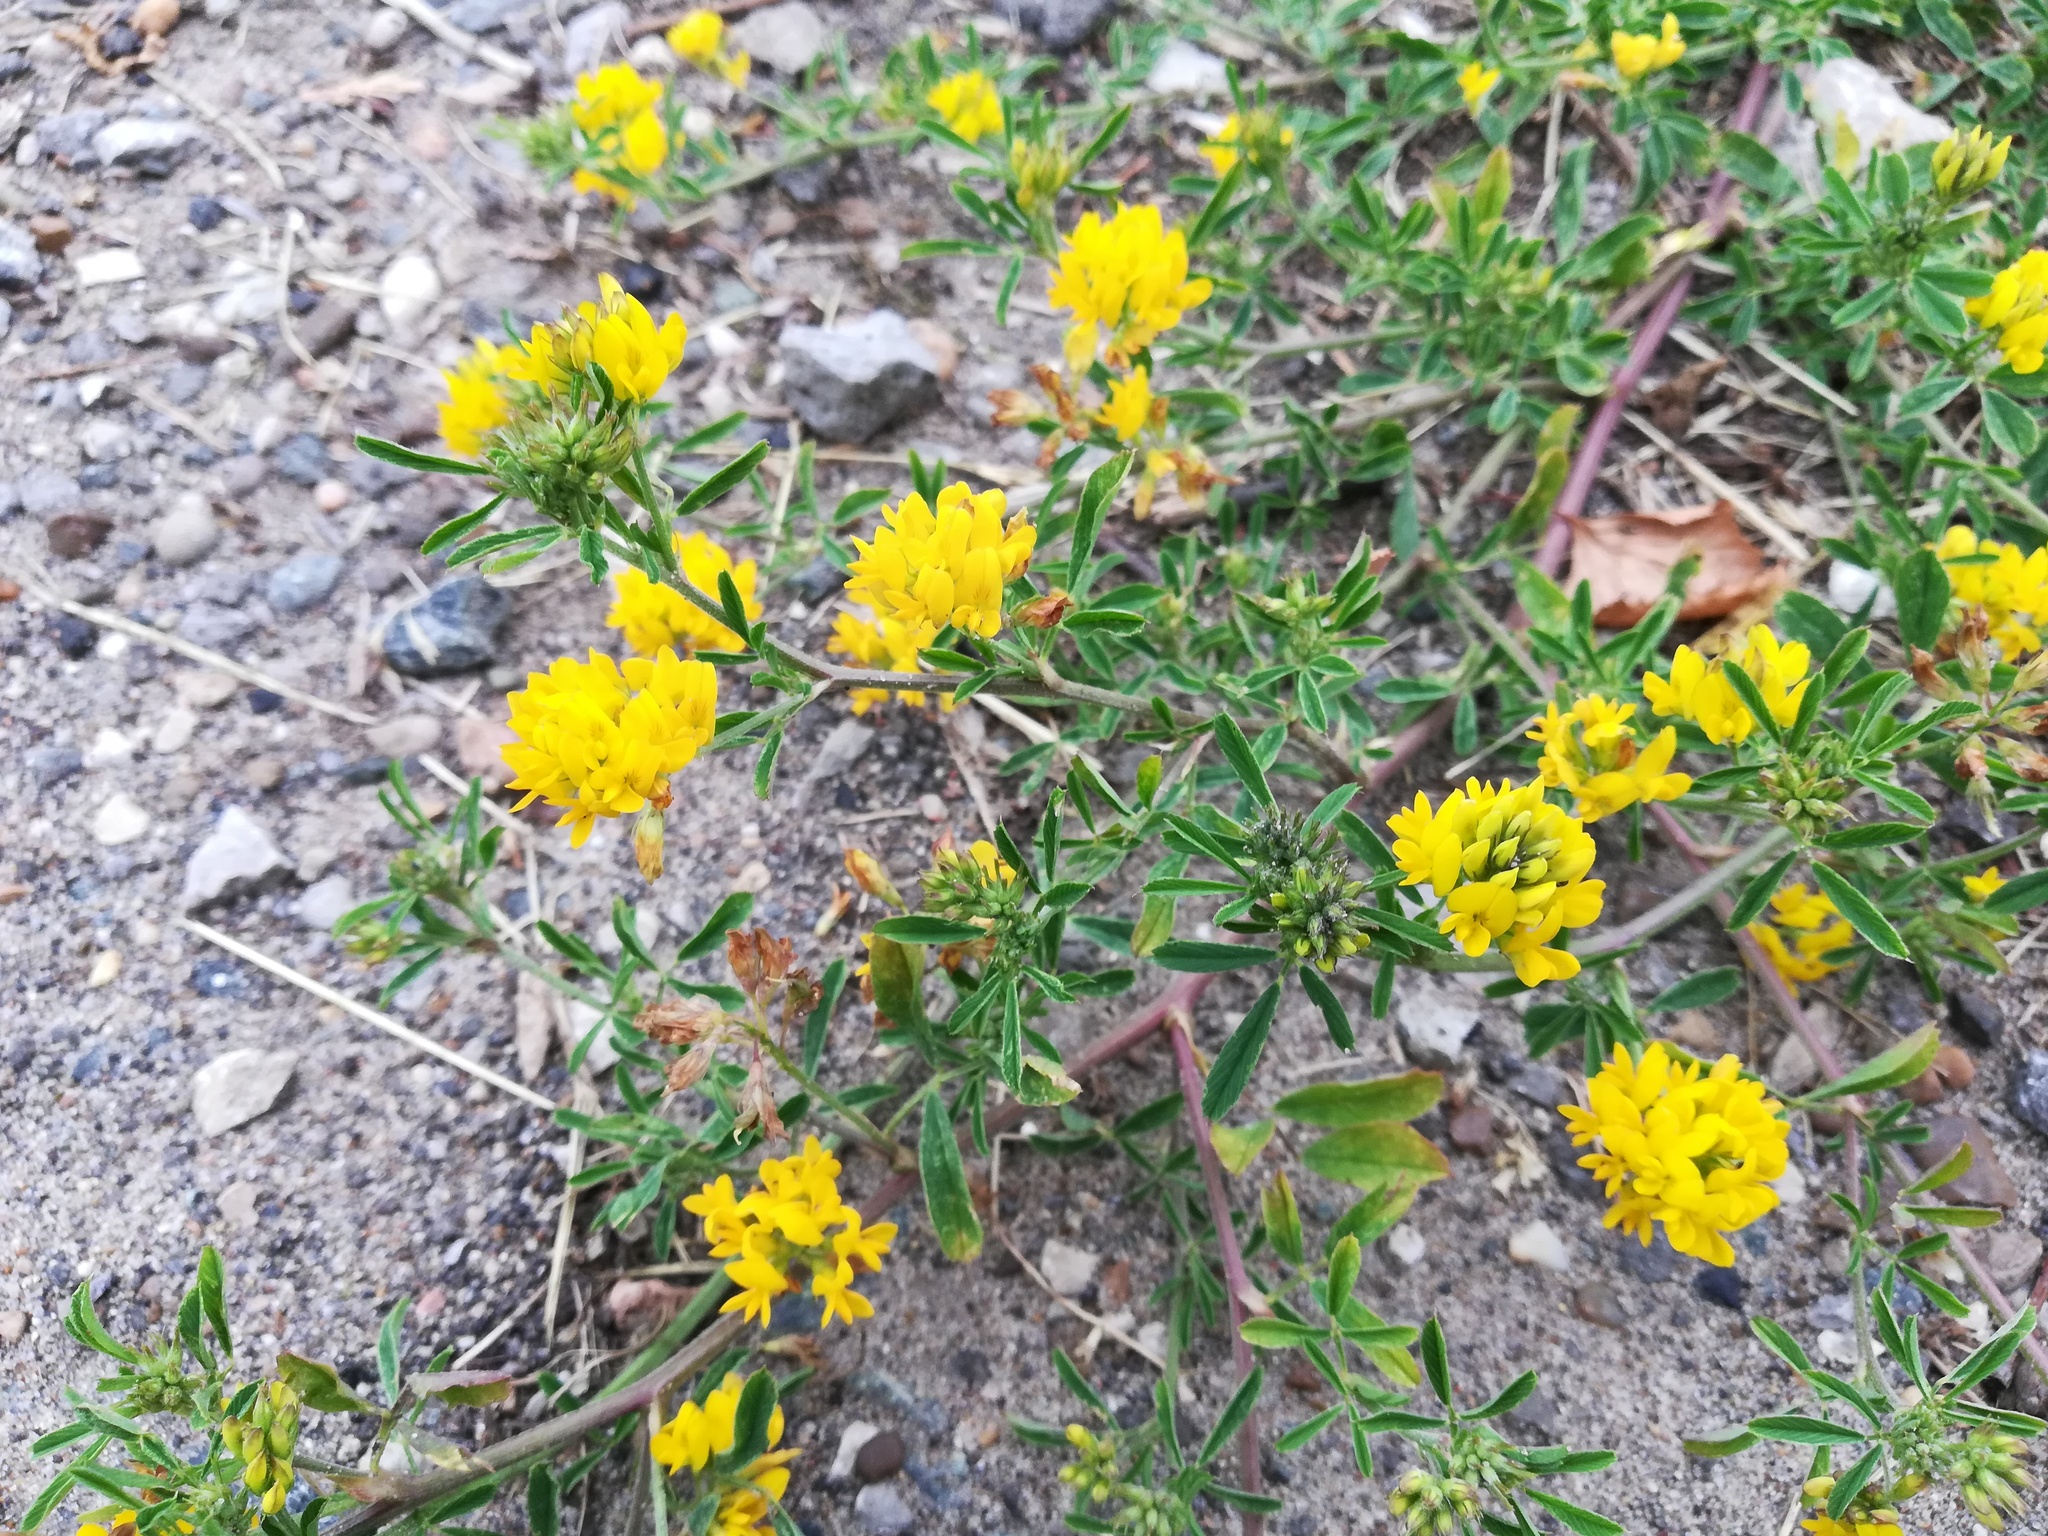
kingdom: Plantae
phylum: Tracheophyta
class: Magnoliopsida
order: Fabales
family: Fabaceae
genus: Medicago
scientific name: Medicago falcata
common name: Sickle medick
